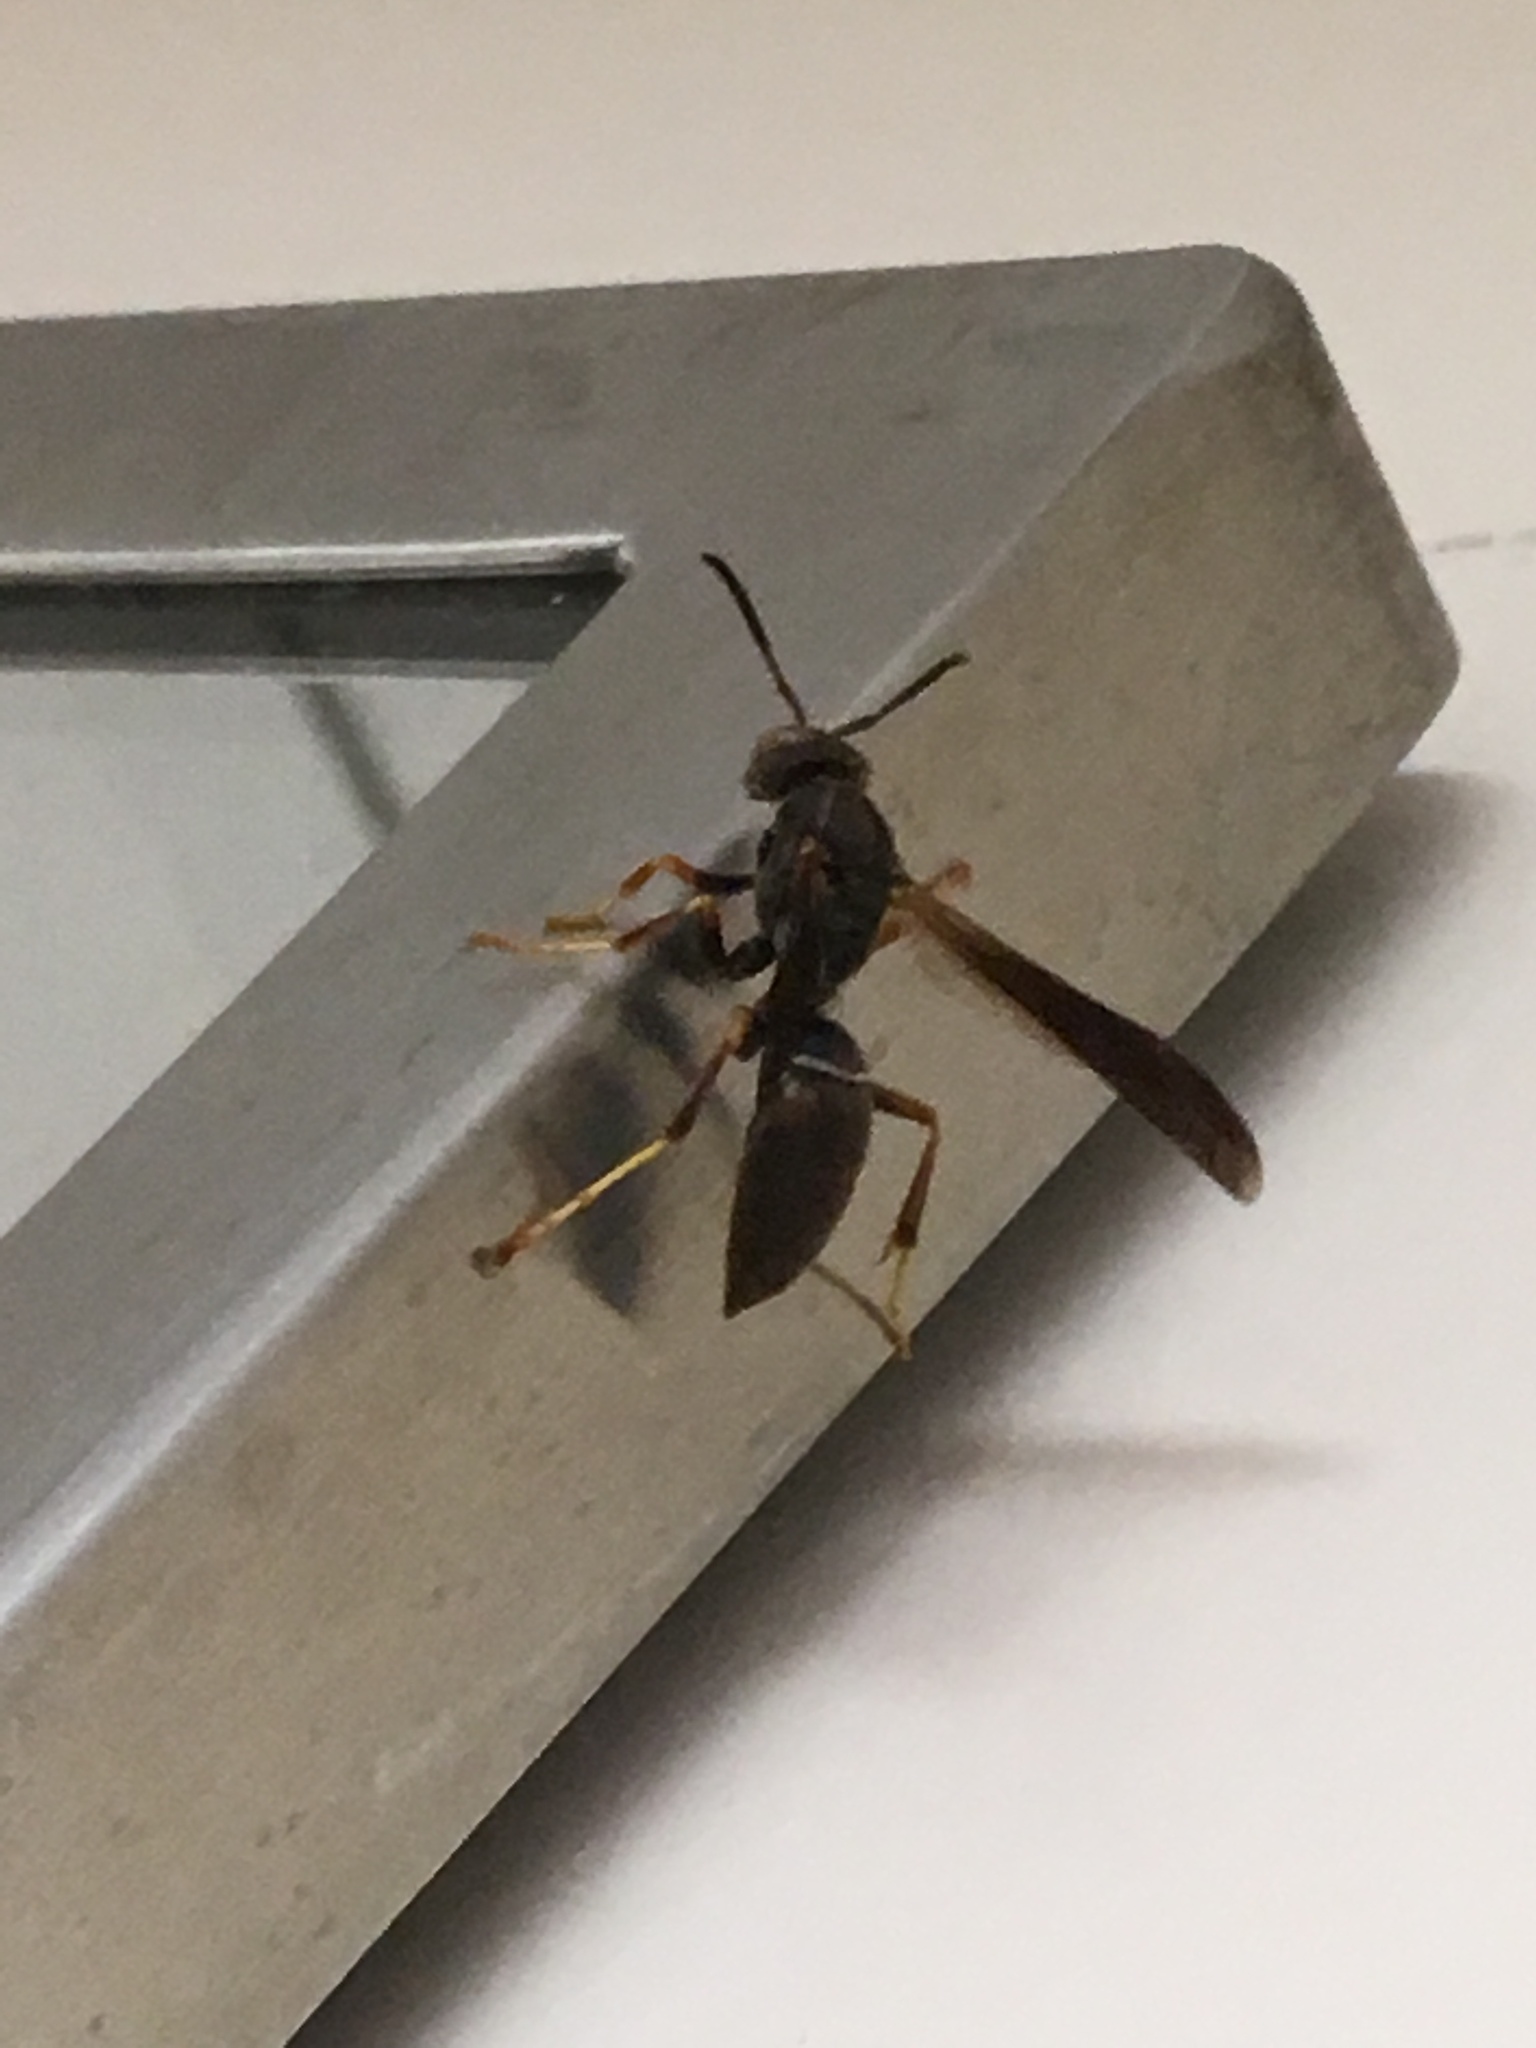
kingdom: Animalia
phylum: Arthropoda
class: Insecta
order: Hymenoptera
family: Eumenidae
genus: Polistes
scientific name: Polistes fuscatus
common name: Dark paper wasp
